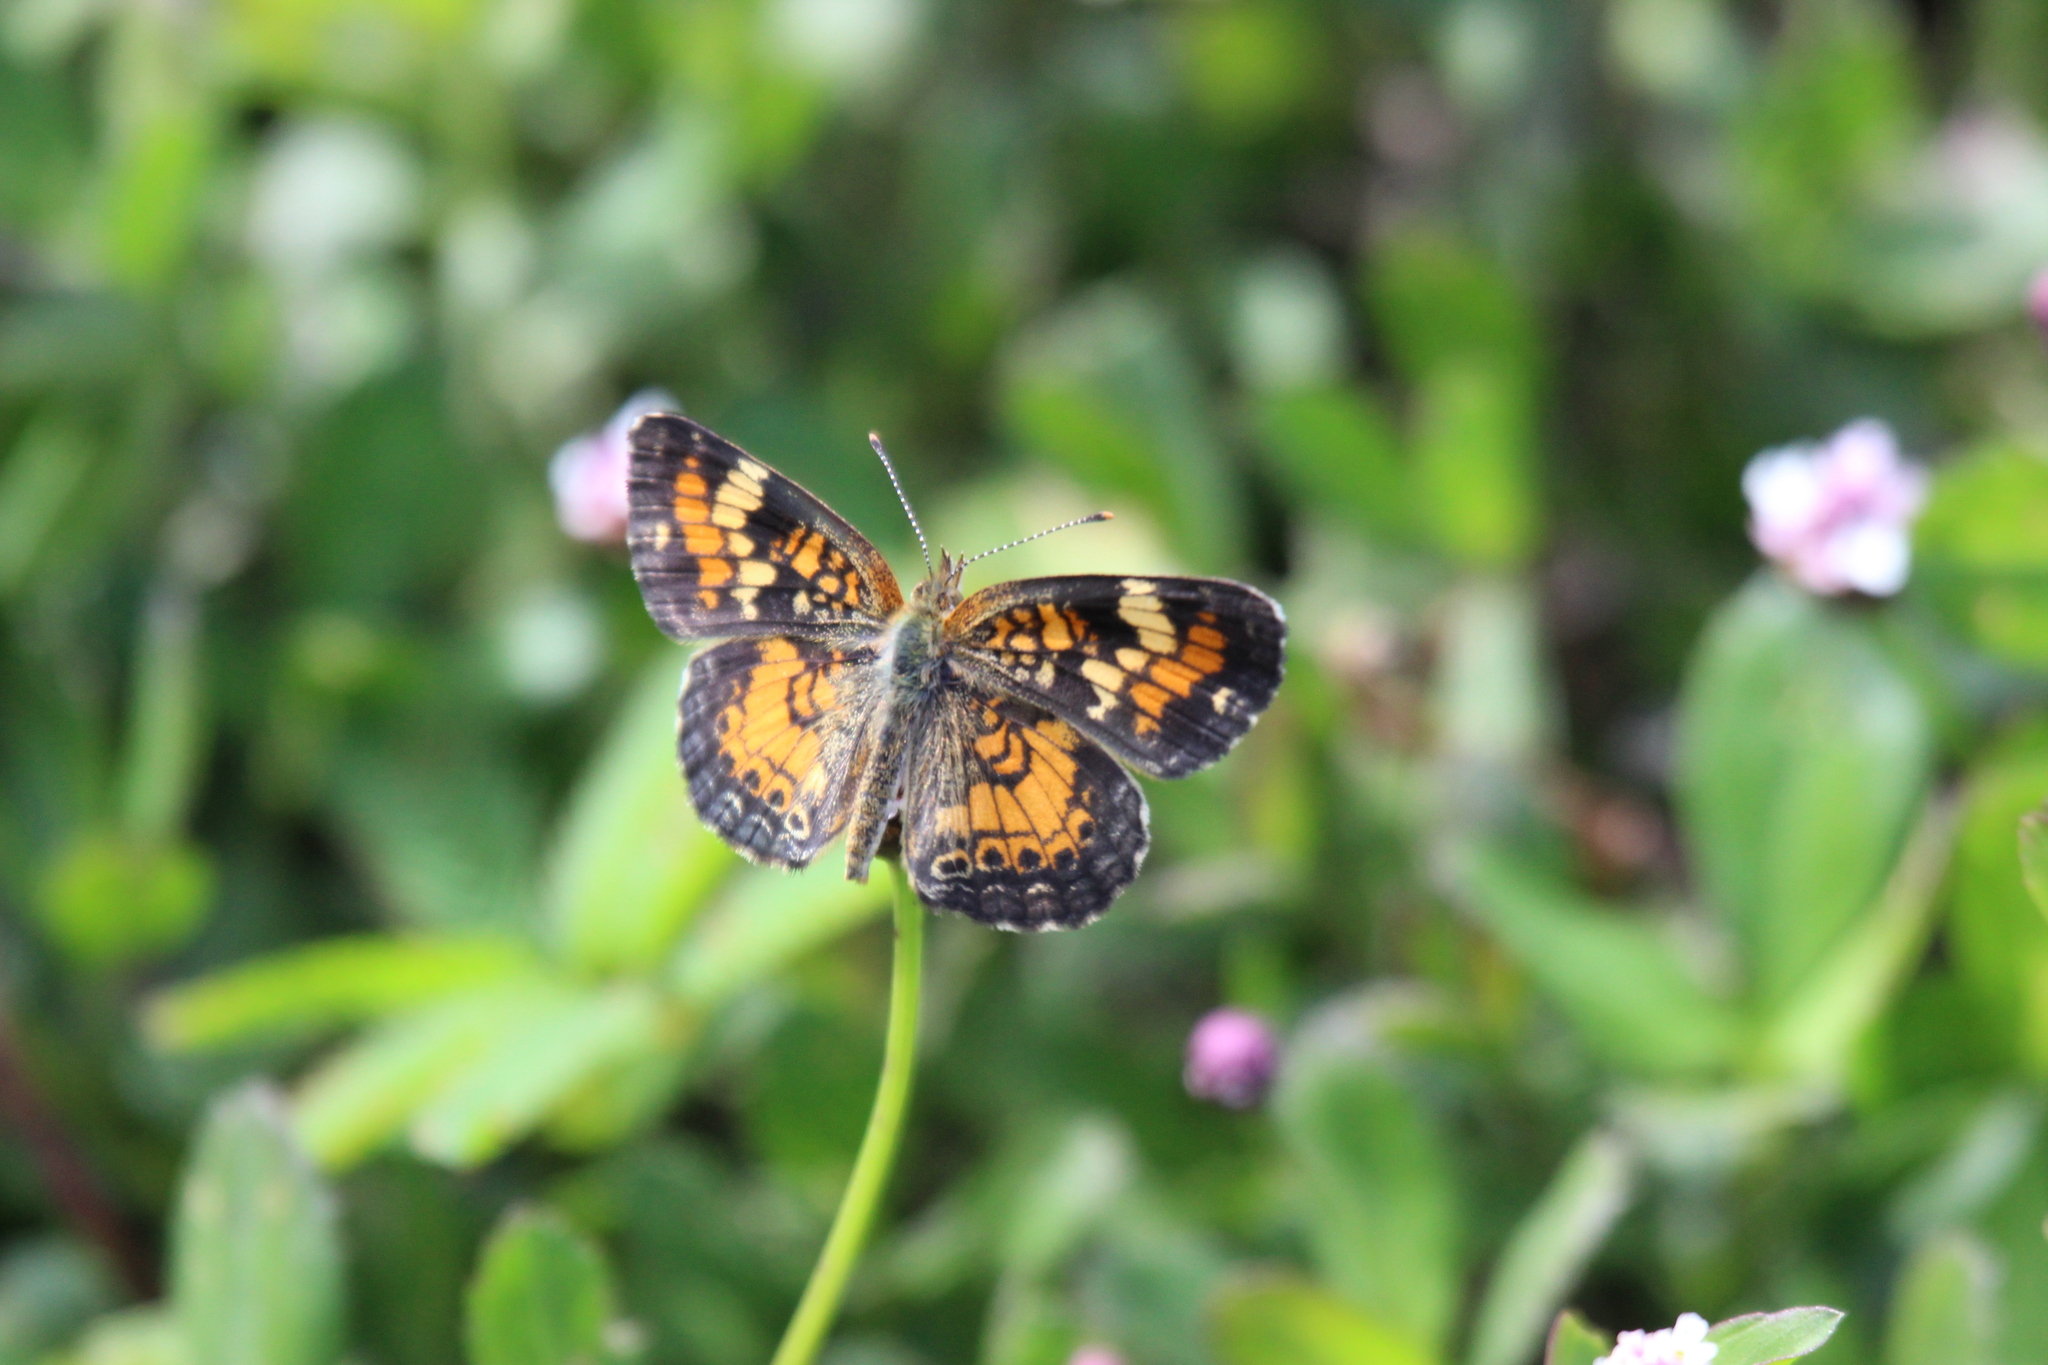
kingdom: Animalia
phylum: Arthropoda
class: Insecta
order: Lepidoptera
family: Nymphalidae
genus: Phyciodes
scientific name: Phyciodes phaon
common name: Phaon crescent
